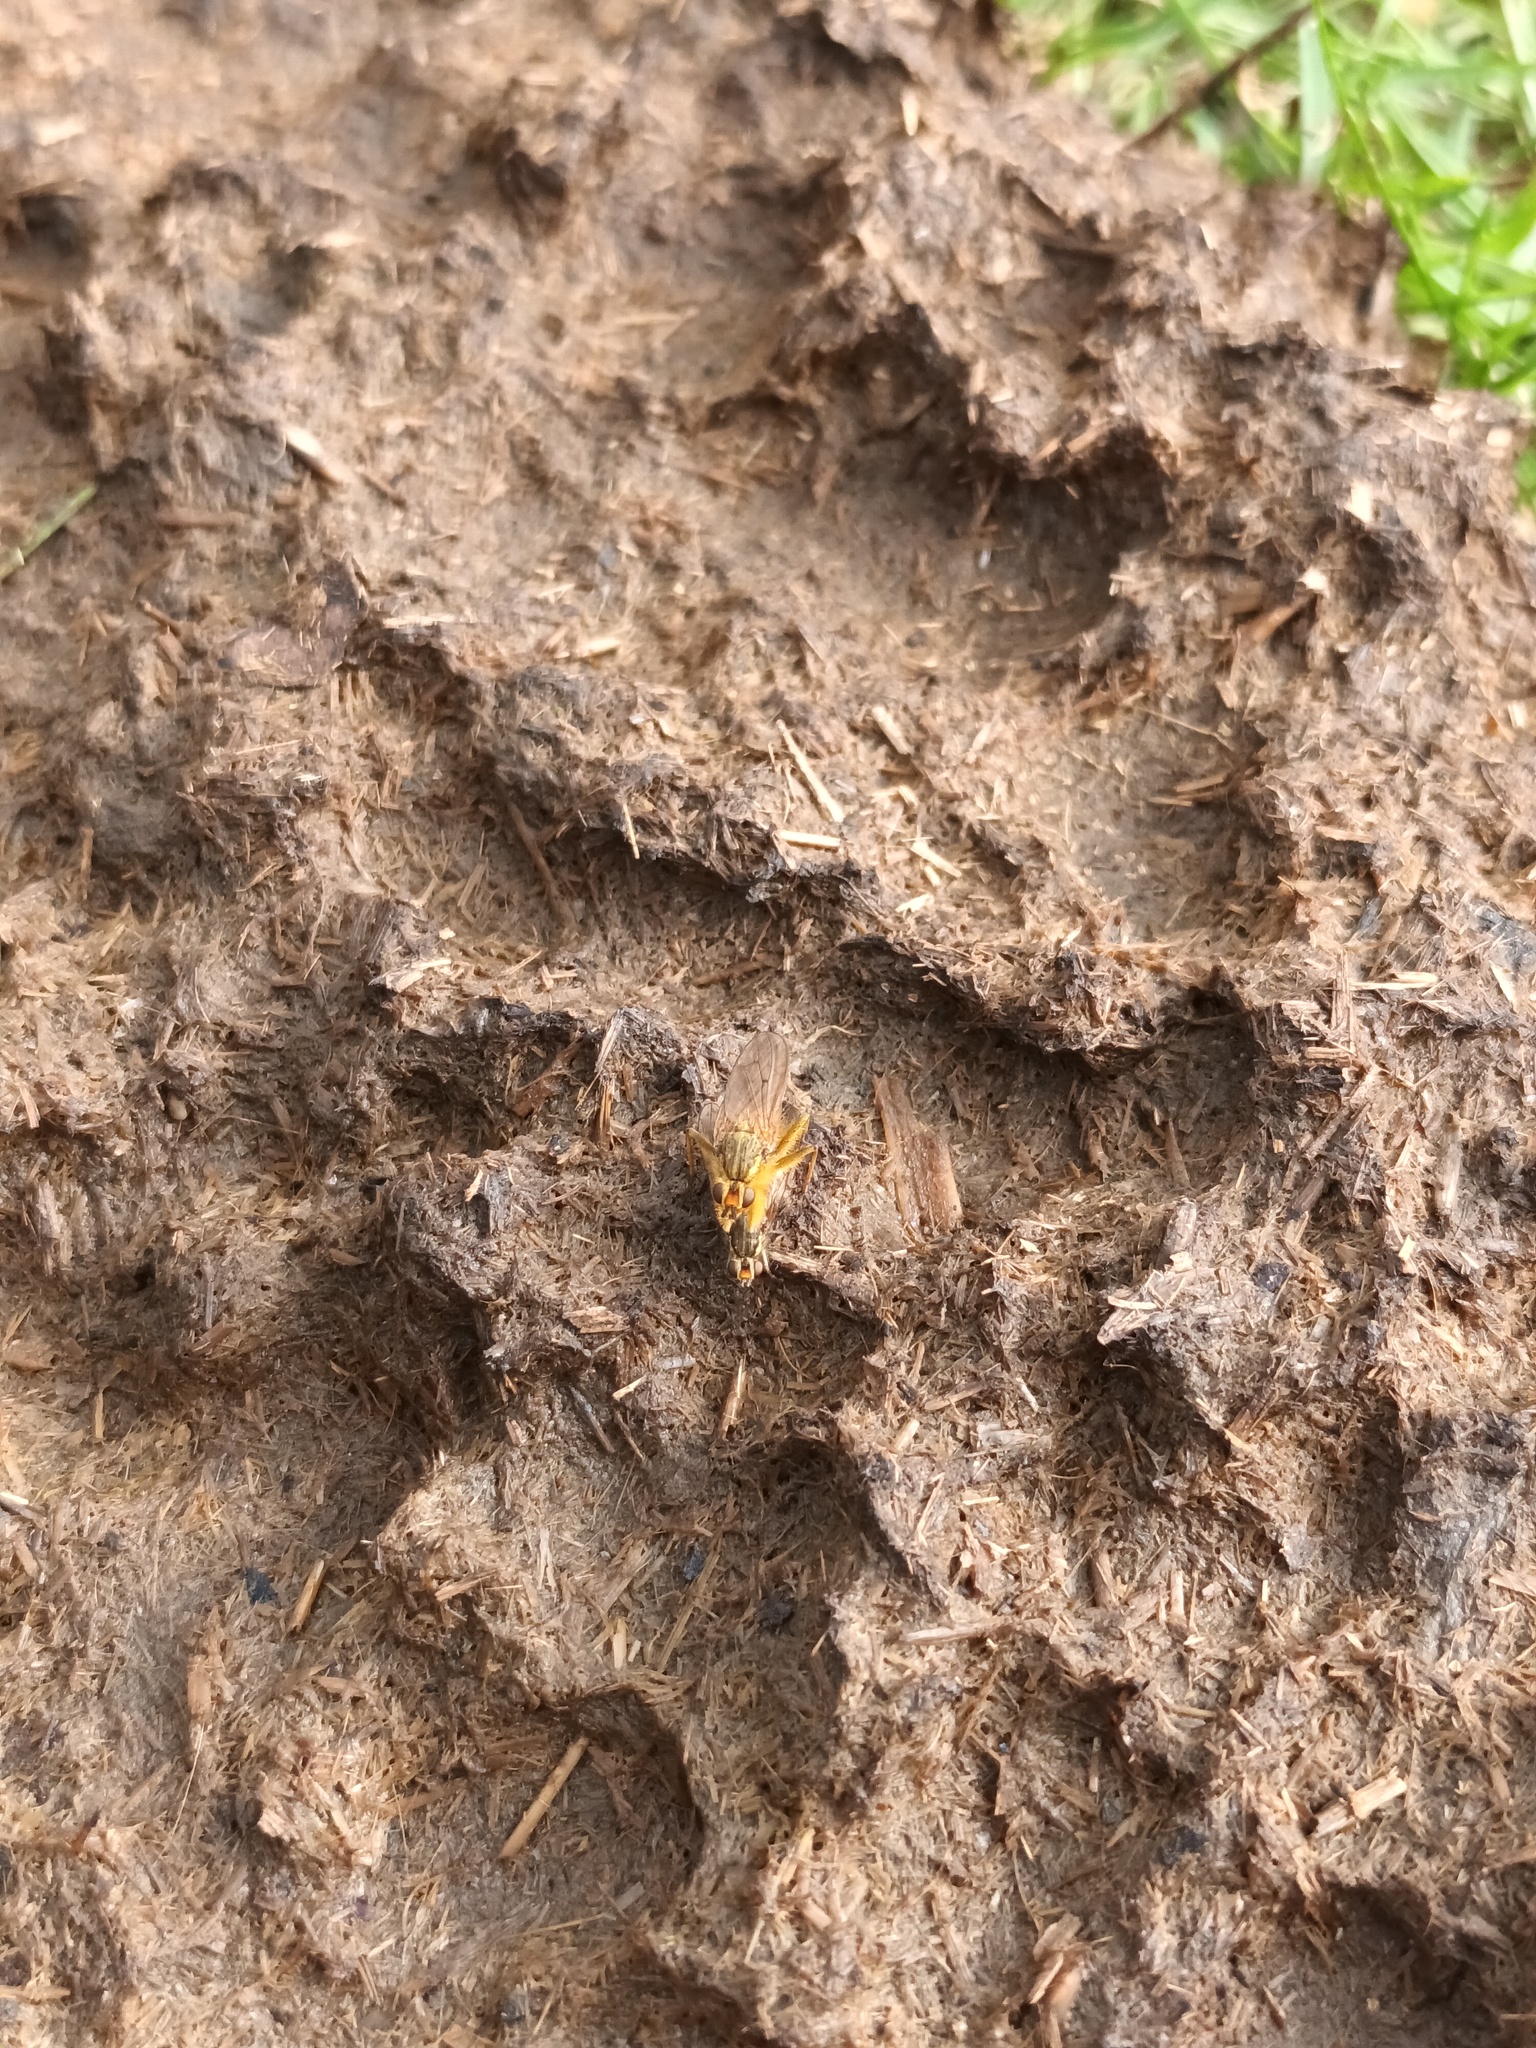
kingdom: Animalia
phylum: Arthropoda
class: Insecta
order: Diptera
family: Scathophagidae
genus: Scathophaga
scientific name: Scathophaga stercoraria
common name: Yellow dung fly
